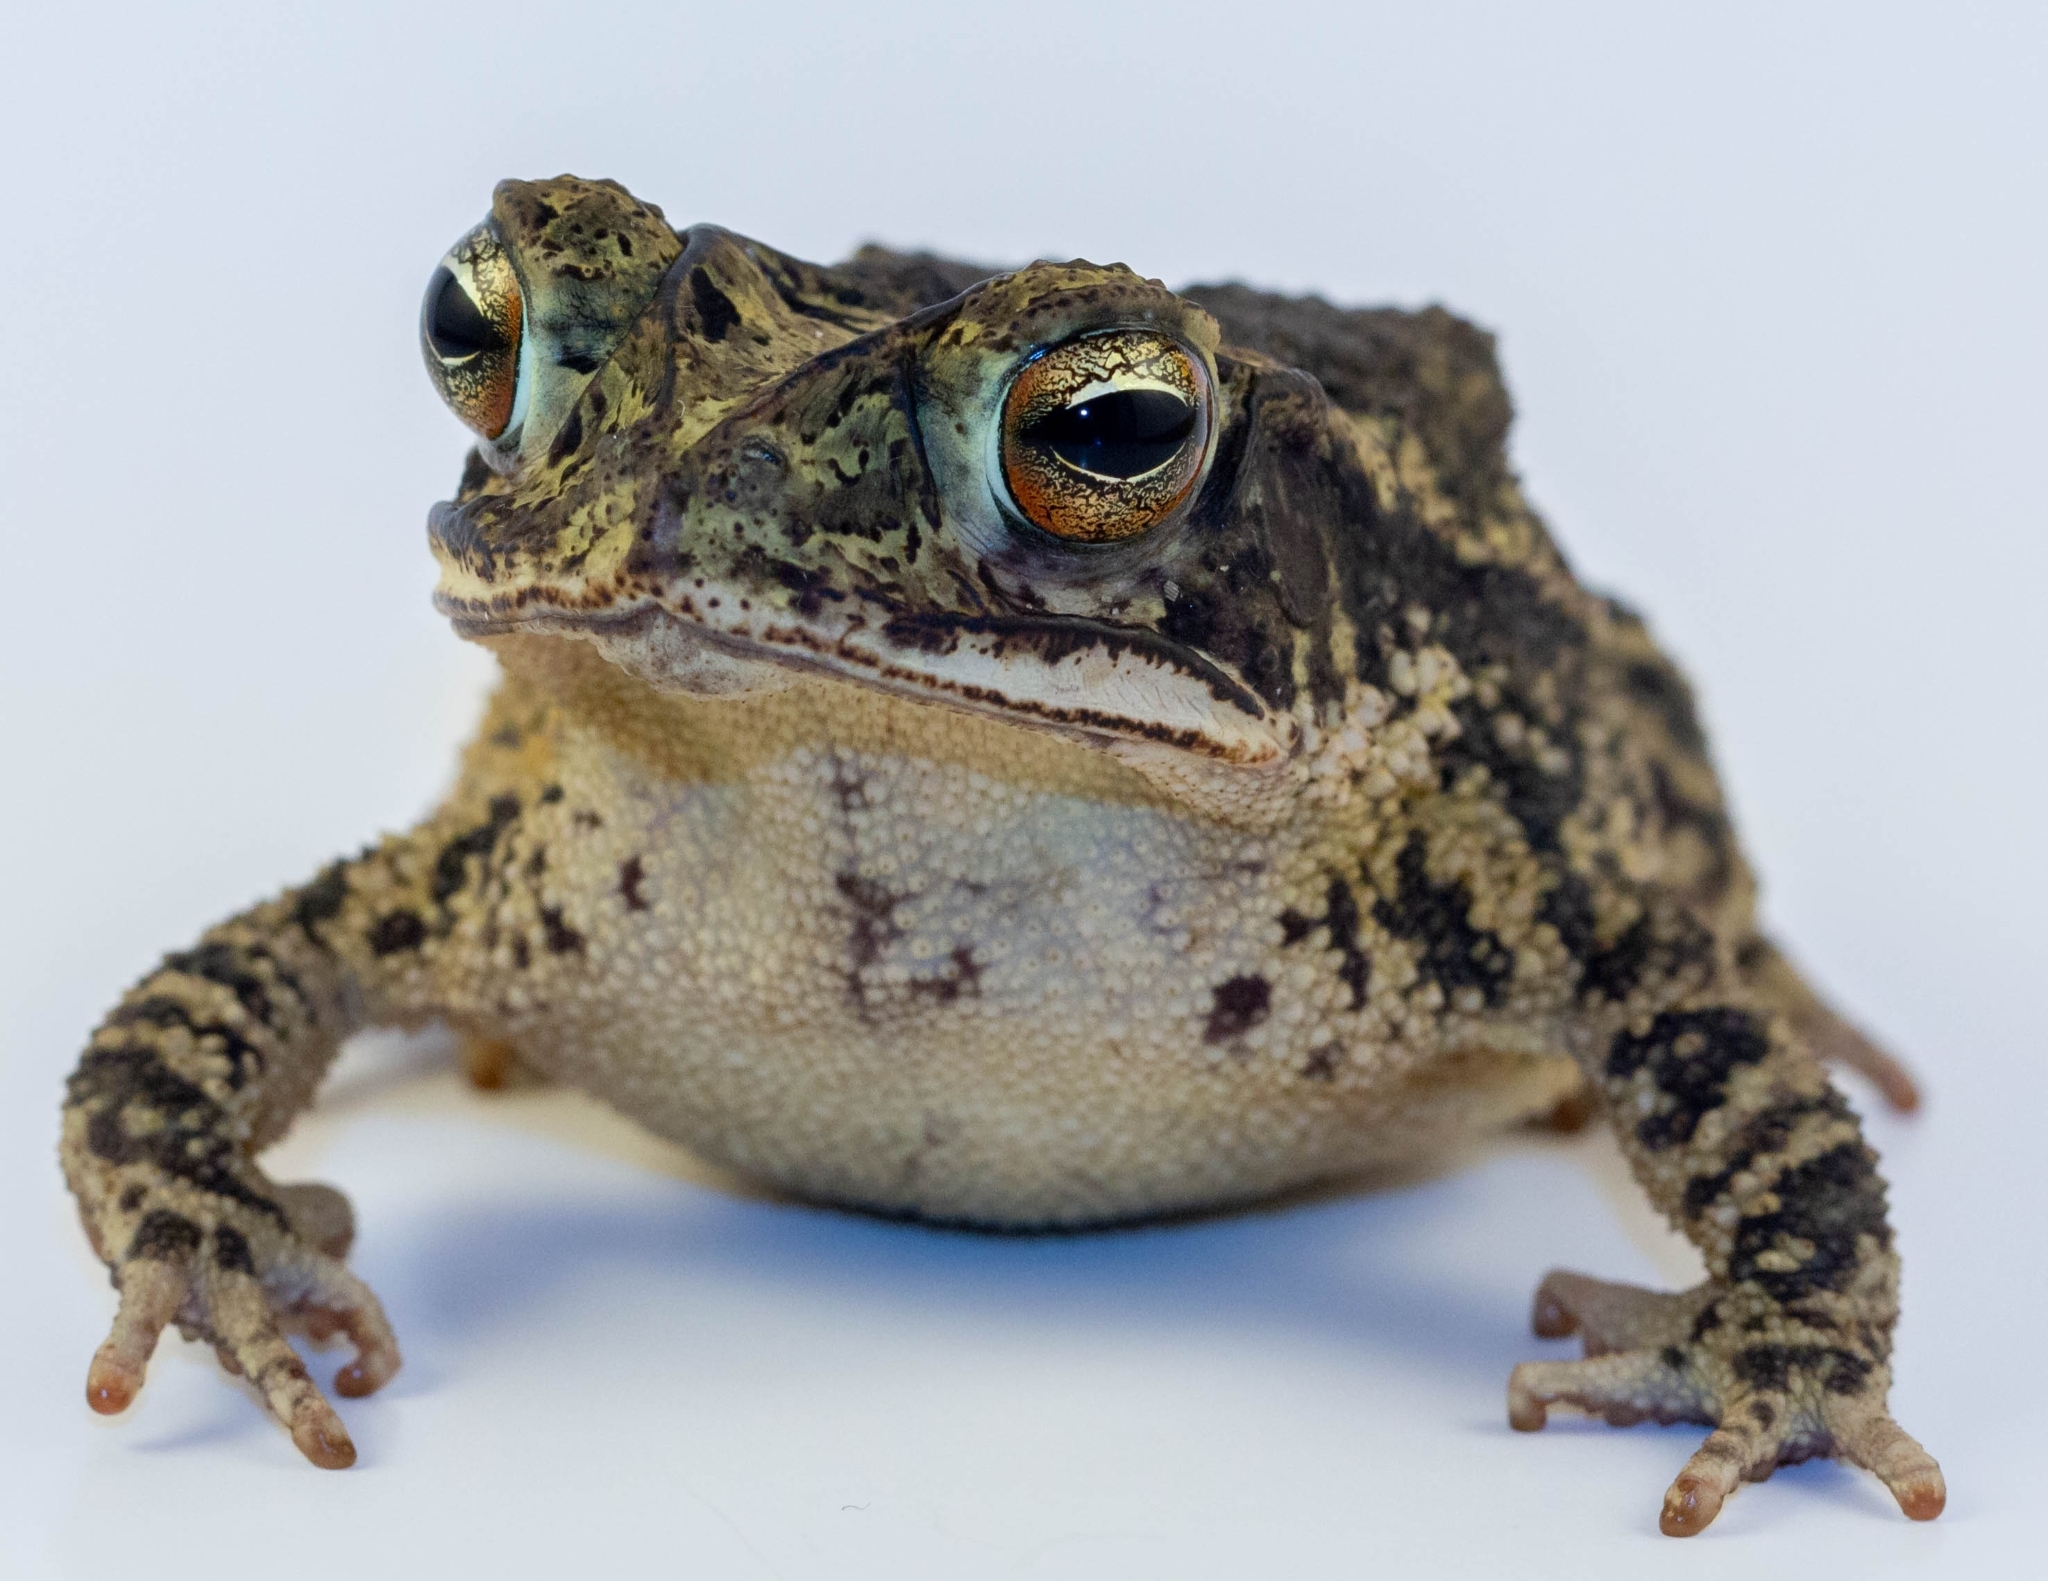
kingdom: Animalia
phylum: Chordata
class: Amphibia
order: Anura
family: Bufonidae
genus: Incilius
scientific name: Incilius nebulifer
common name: Gulf coast toad
